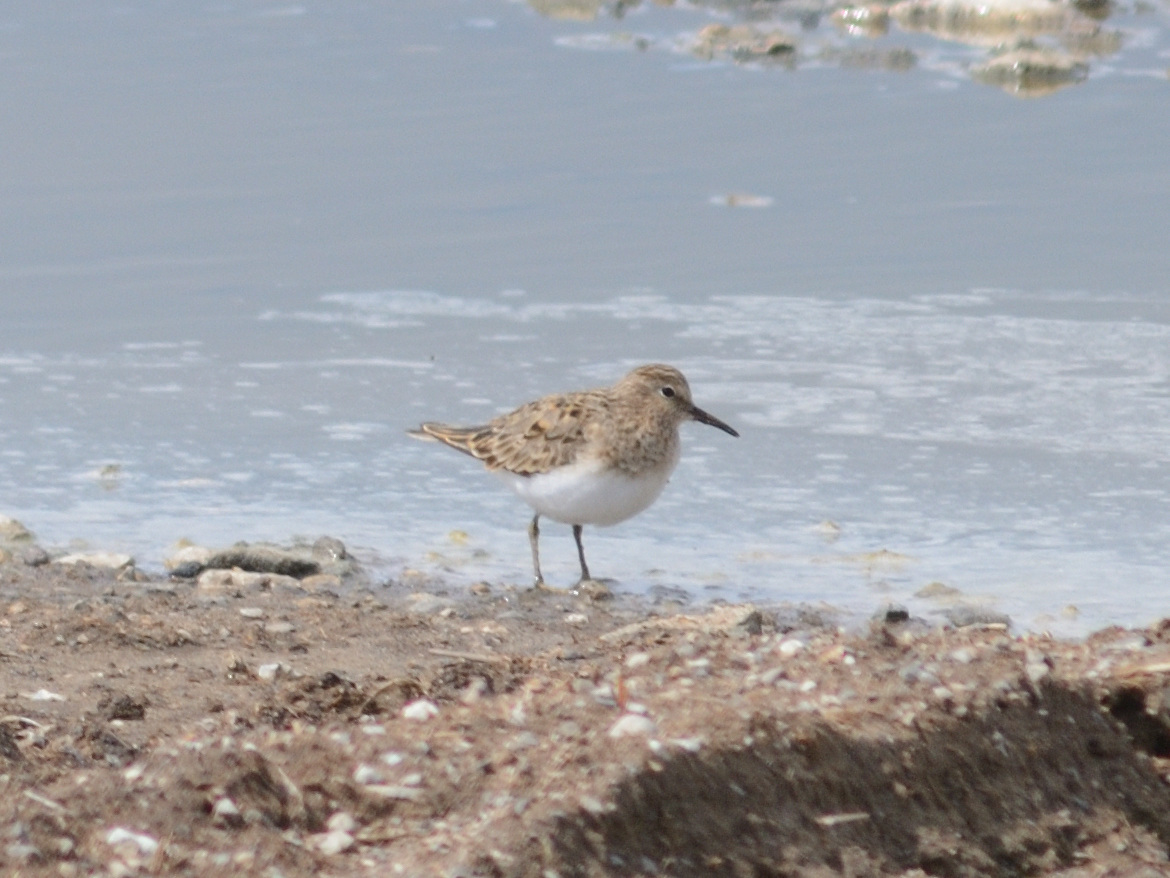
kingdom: Animalia
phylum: Chordata
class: Aves
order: Charadriiformes
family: Scolopacidae
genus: Calidris
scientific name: Calidris temminckii
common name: Temminck's stint
